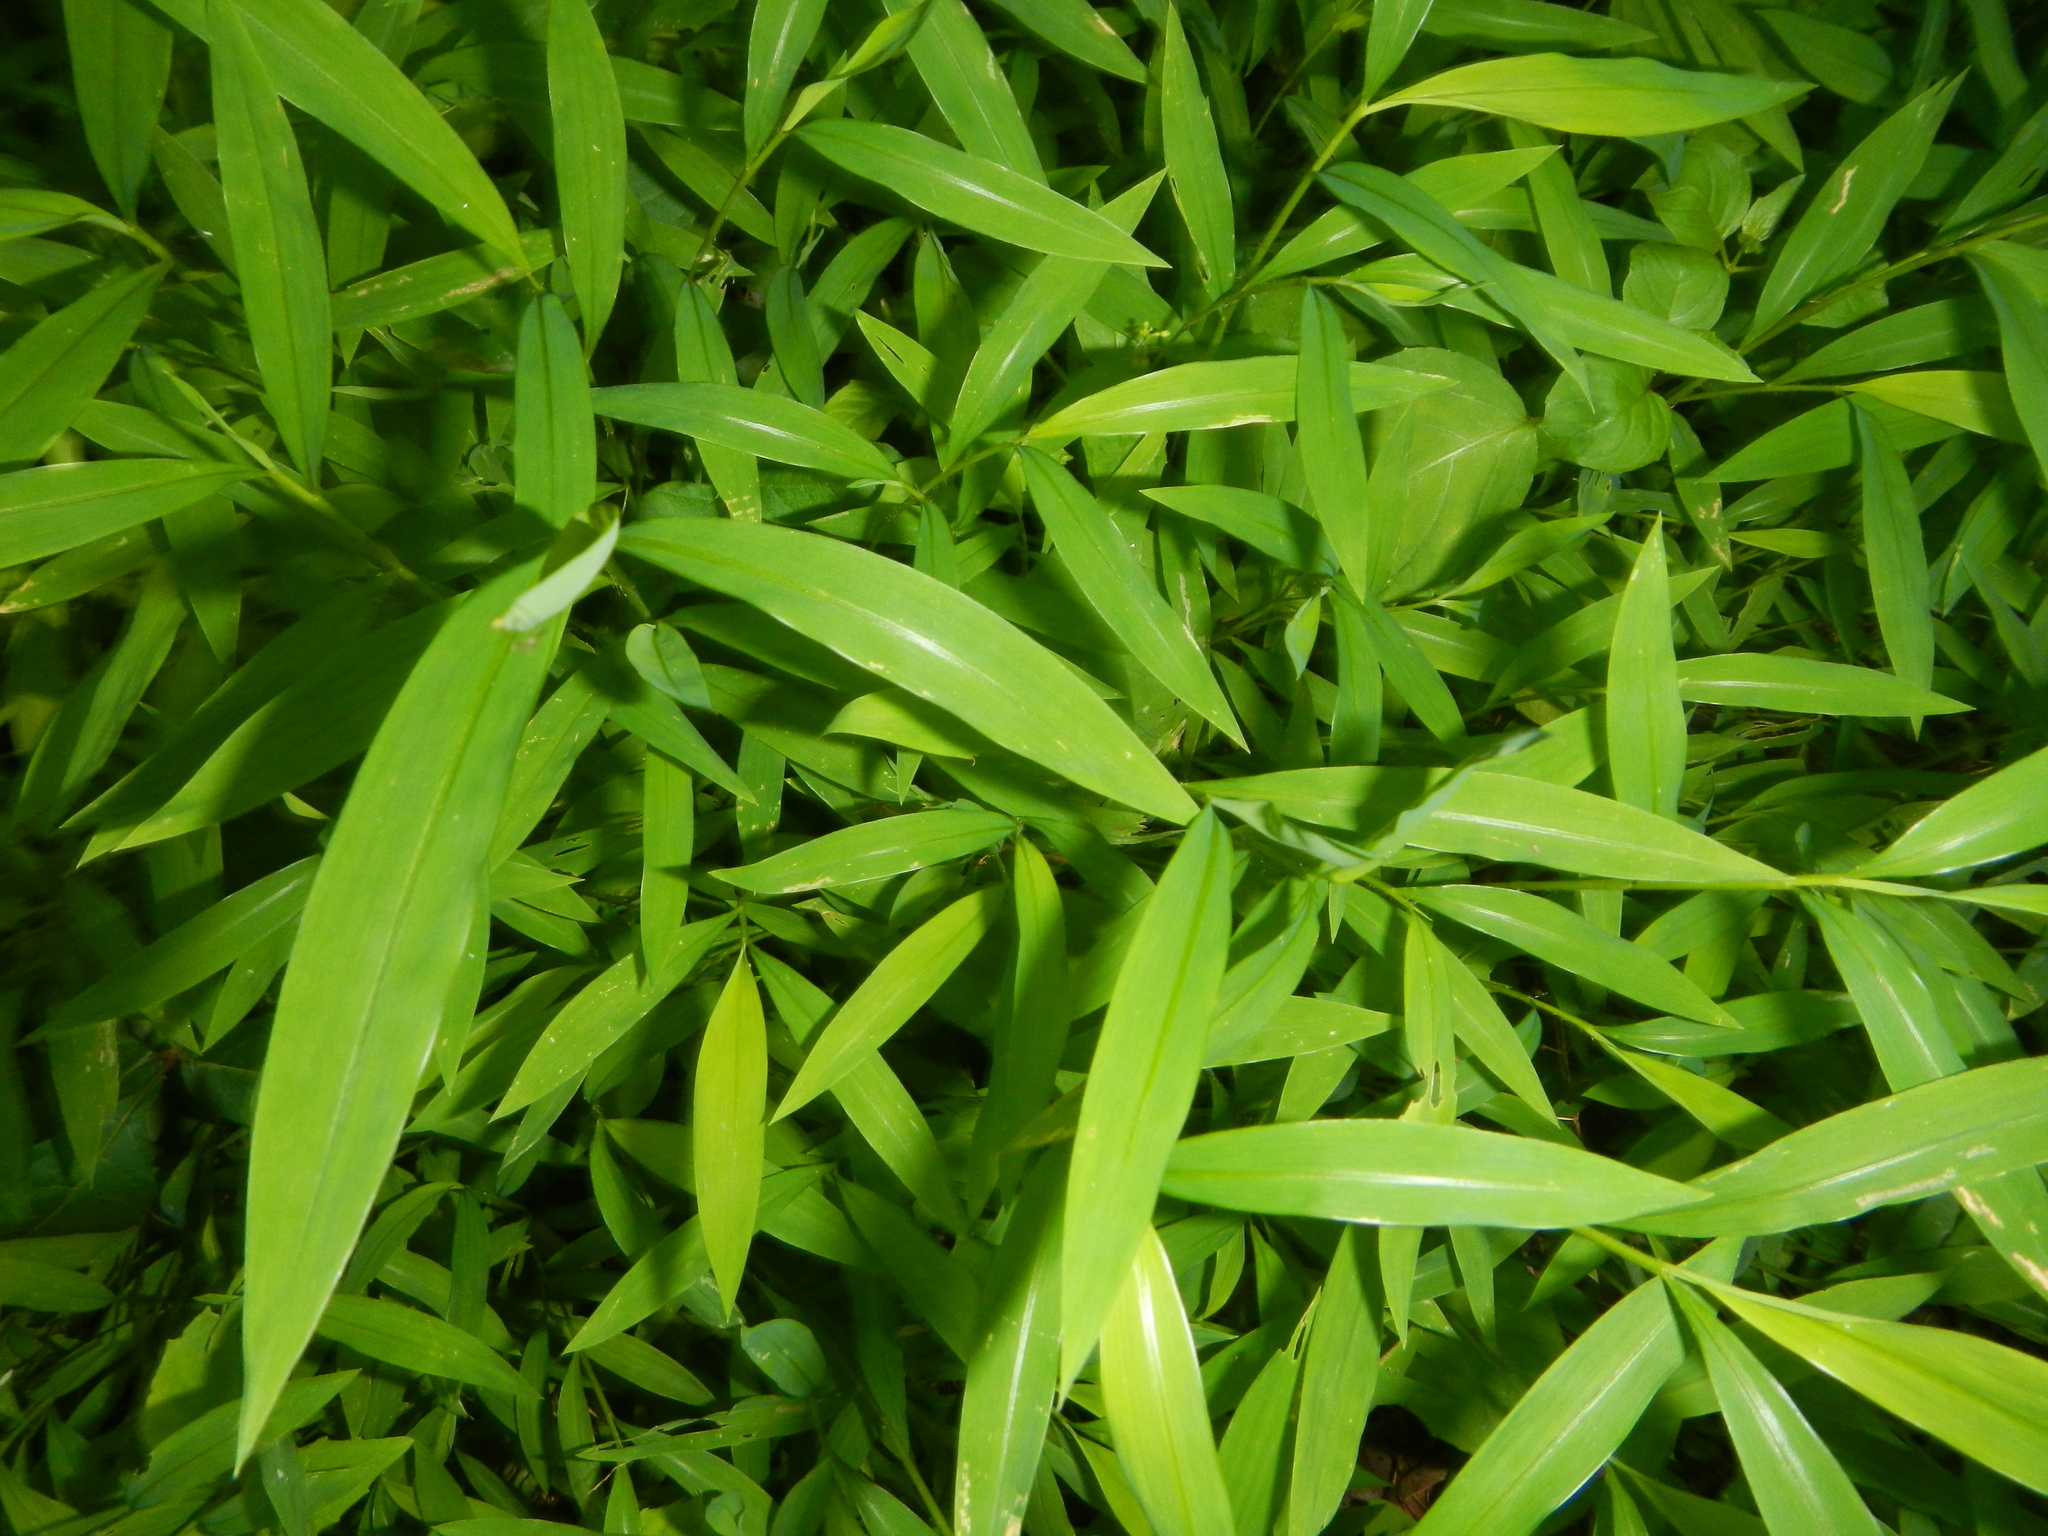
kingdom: Plantae
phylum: Tracheophyta
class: Liliopsida
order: Poales
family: Poaceae
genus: Microstegium
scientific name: Microstegium vimineum
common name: Japanese stiltgrass
